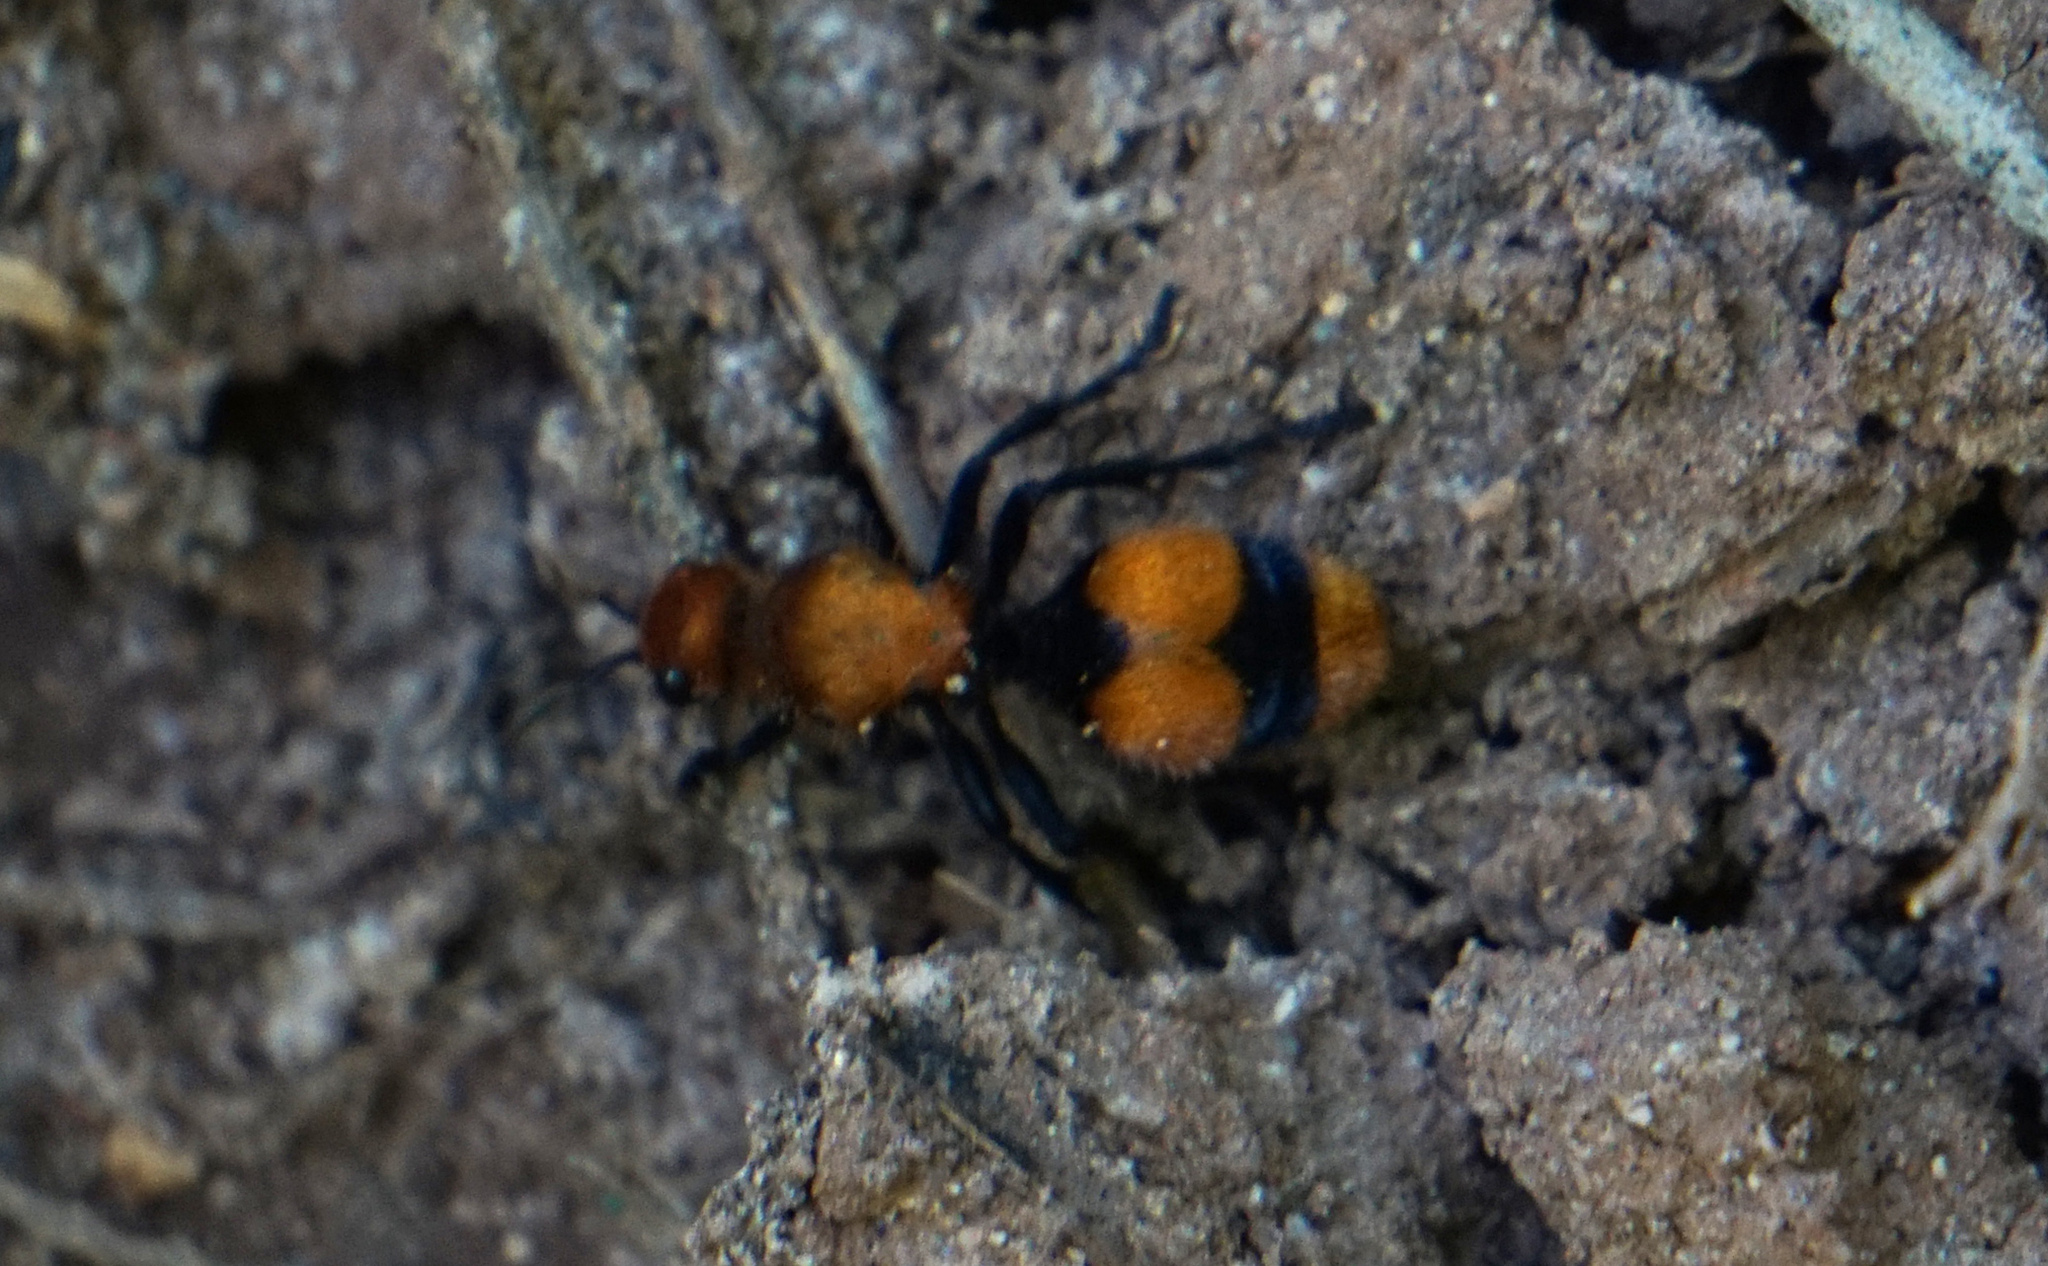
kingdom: Animalia
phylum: Arthropoda
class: Insecta
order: Hymenoptera
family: Mutillidae
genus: Dasymutilla
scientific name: Dasymutilla occidentalis
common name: Common eastern velvet ant
